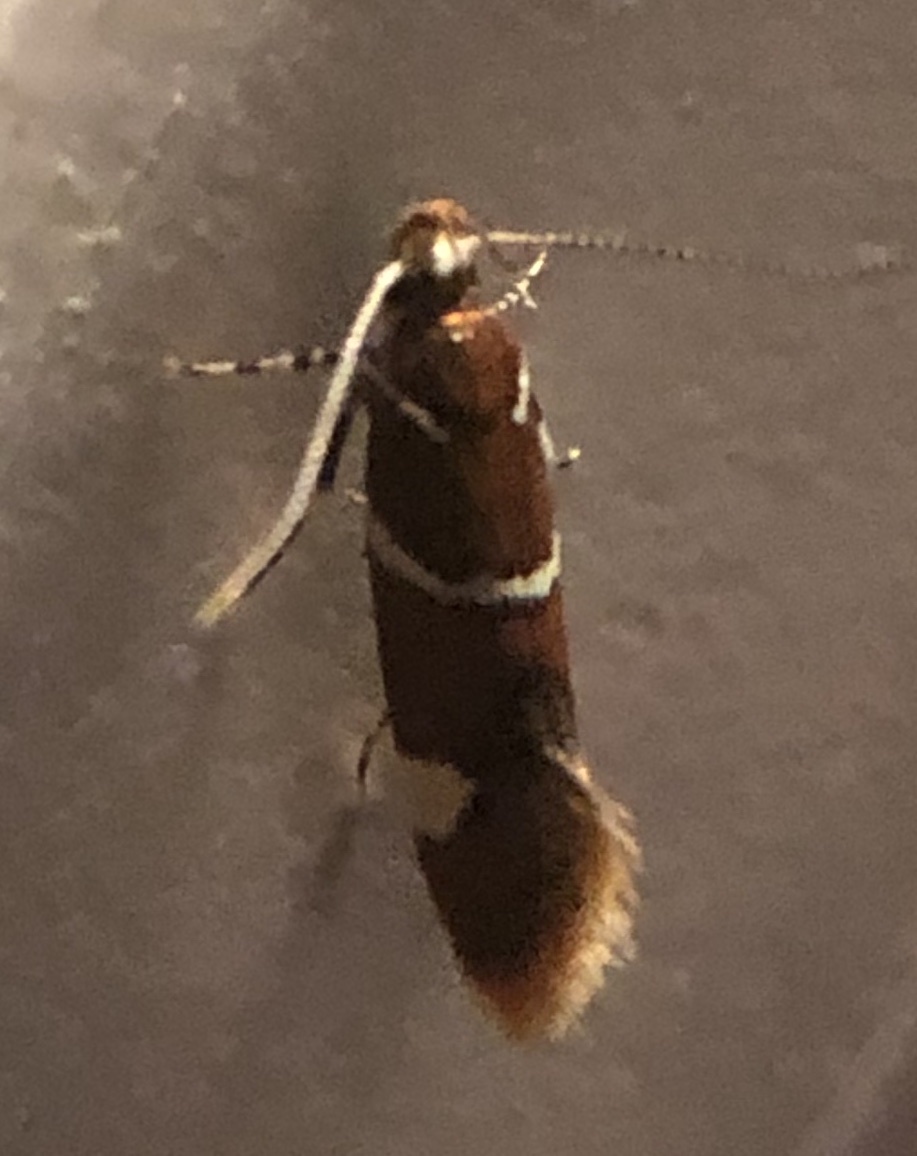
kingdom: Animalia
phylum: Arthropoda
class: Insecta
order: Lepidoptera
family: Oecophoridae
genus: Promalactis
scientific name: Promalactis suzukiella
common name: Moth
